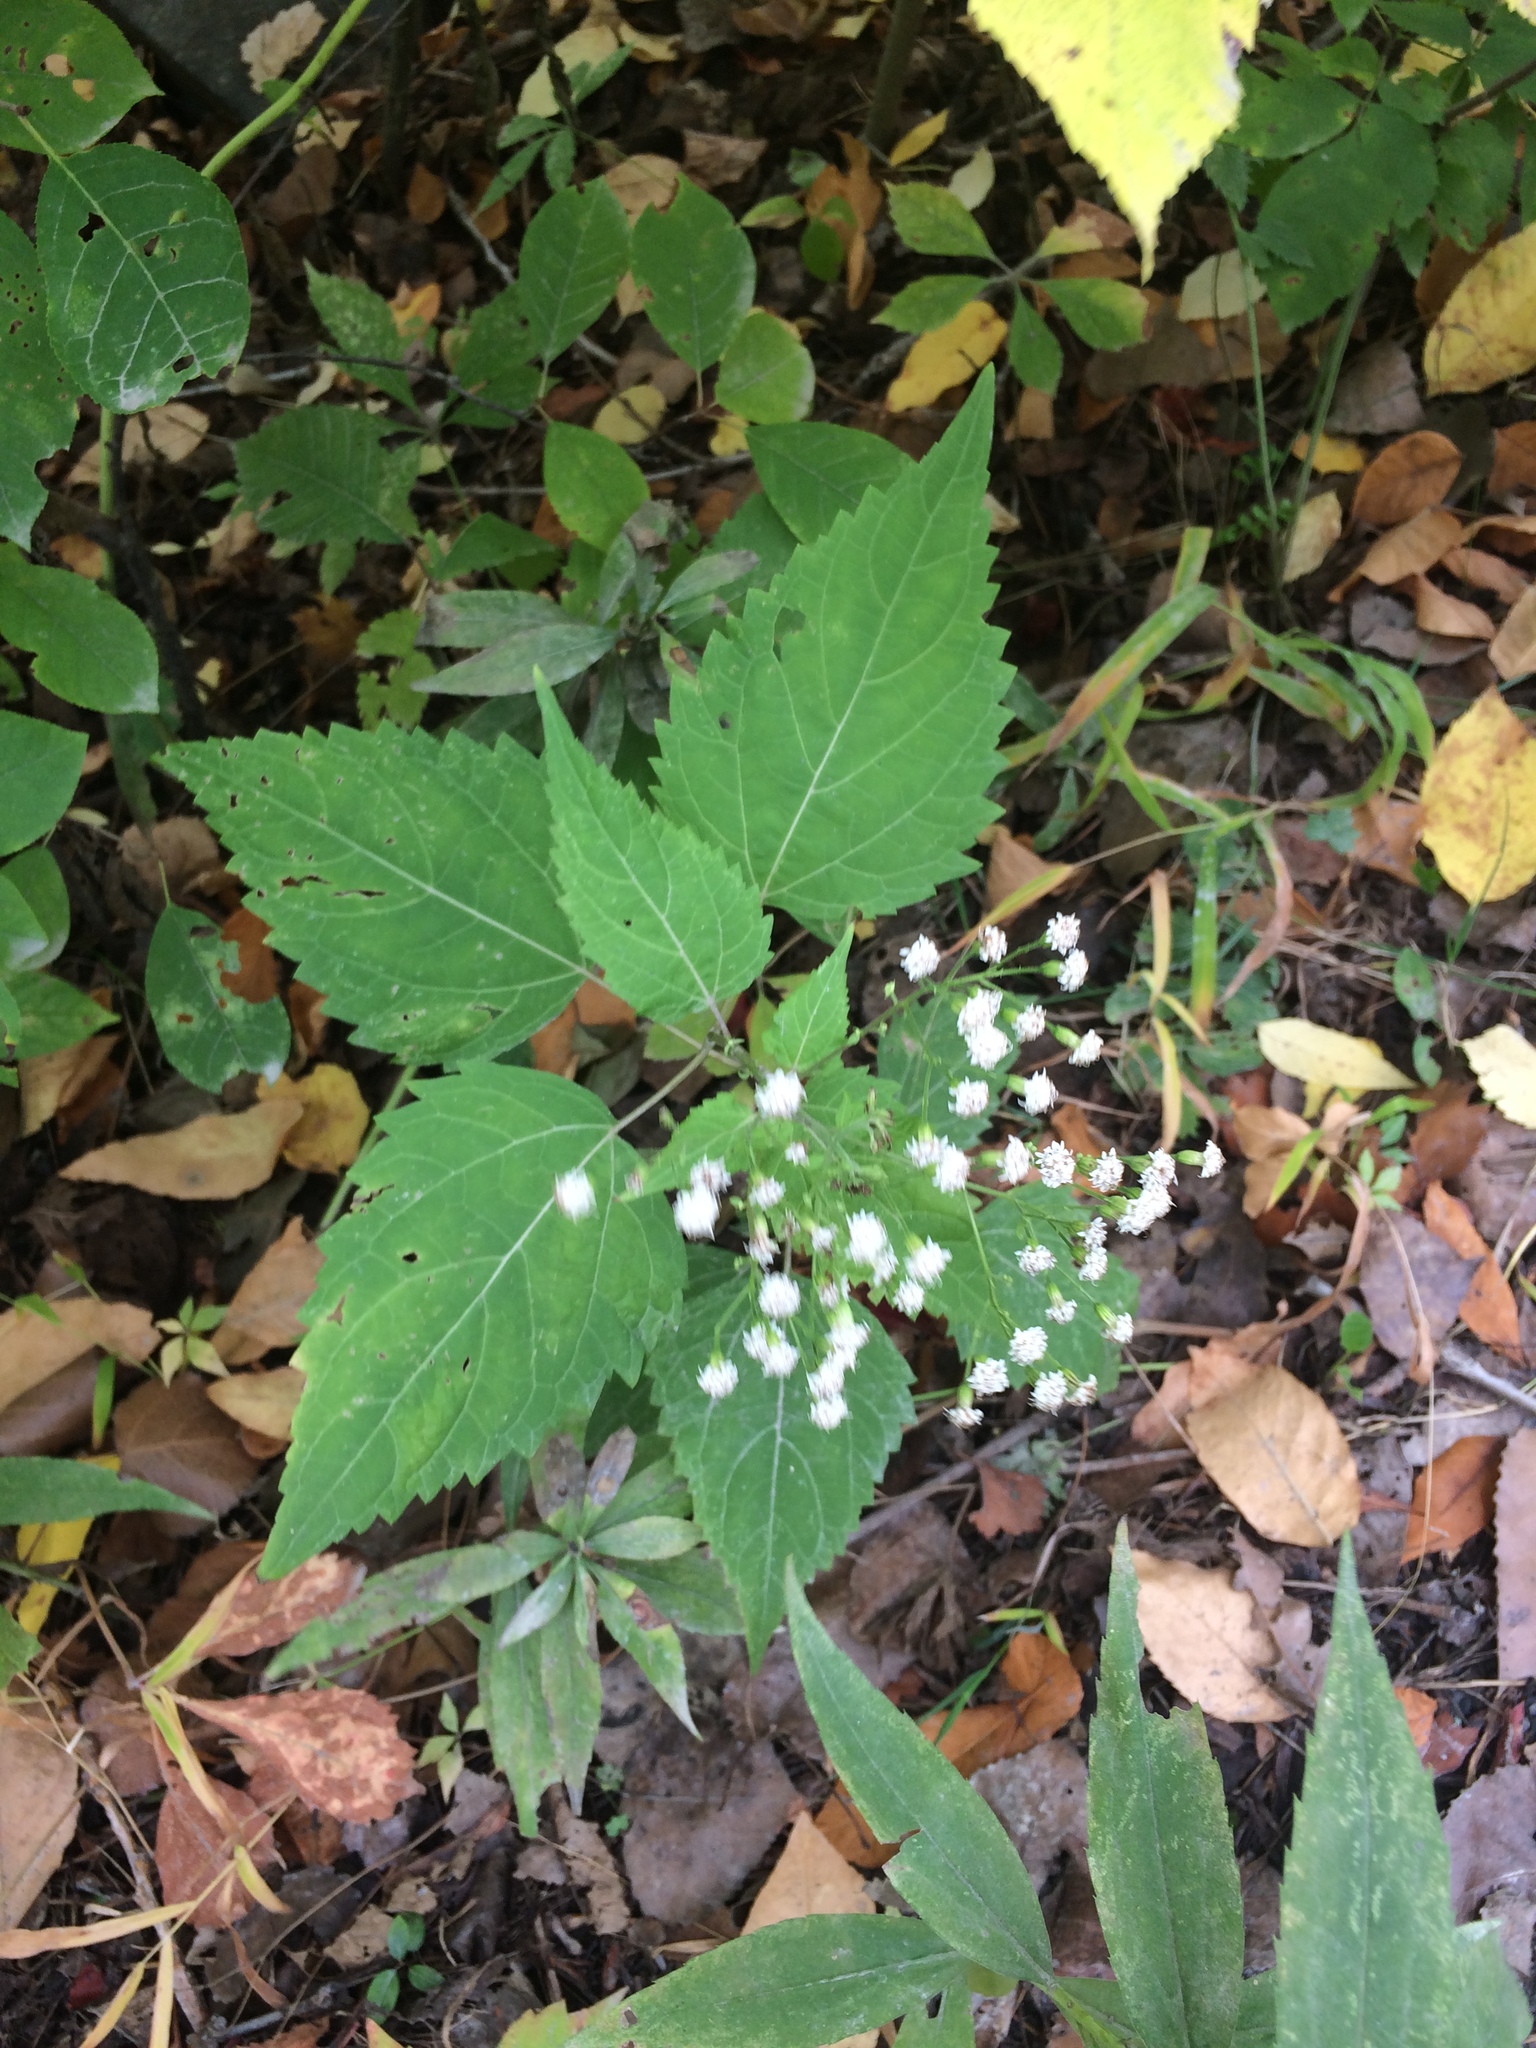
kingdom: Plantae
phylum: Tracheophyta
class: Magnoliopsida
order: Asterales
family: Asteraceae
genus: Ageratina
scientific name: Ageratina altissima
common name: White snakeroot
